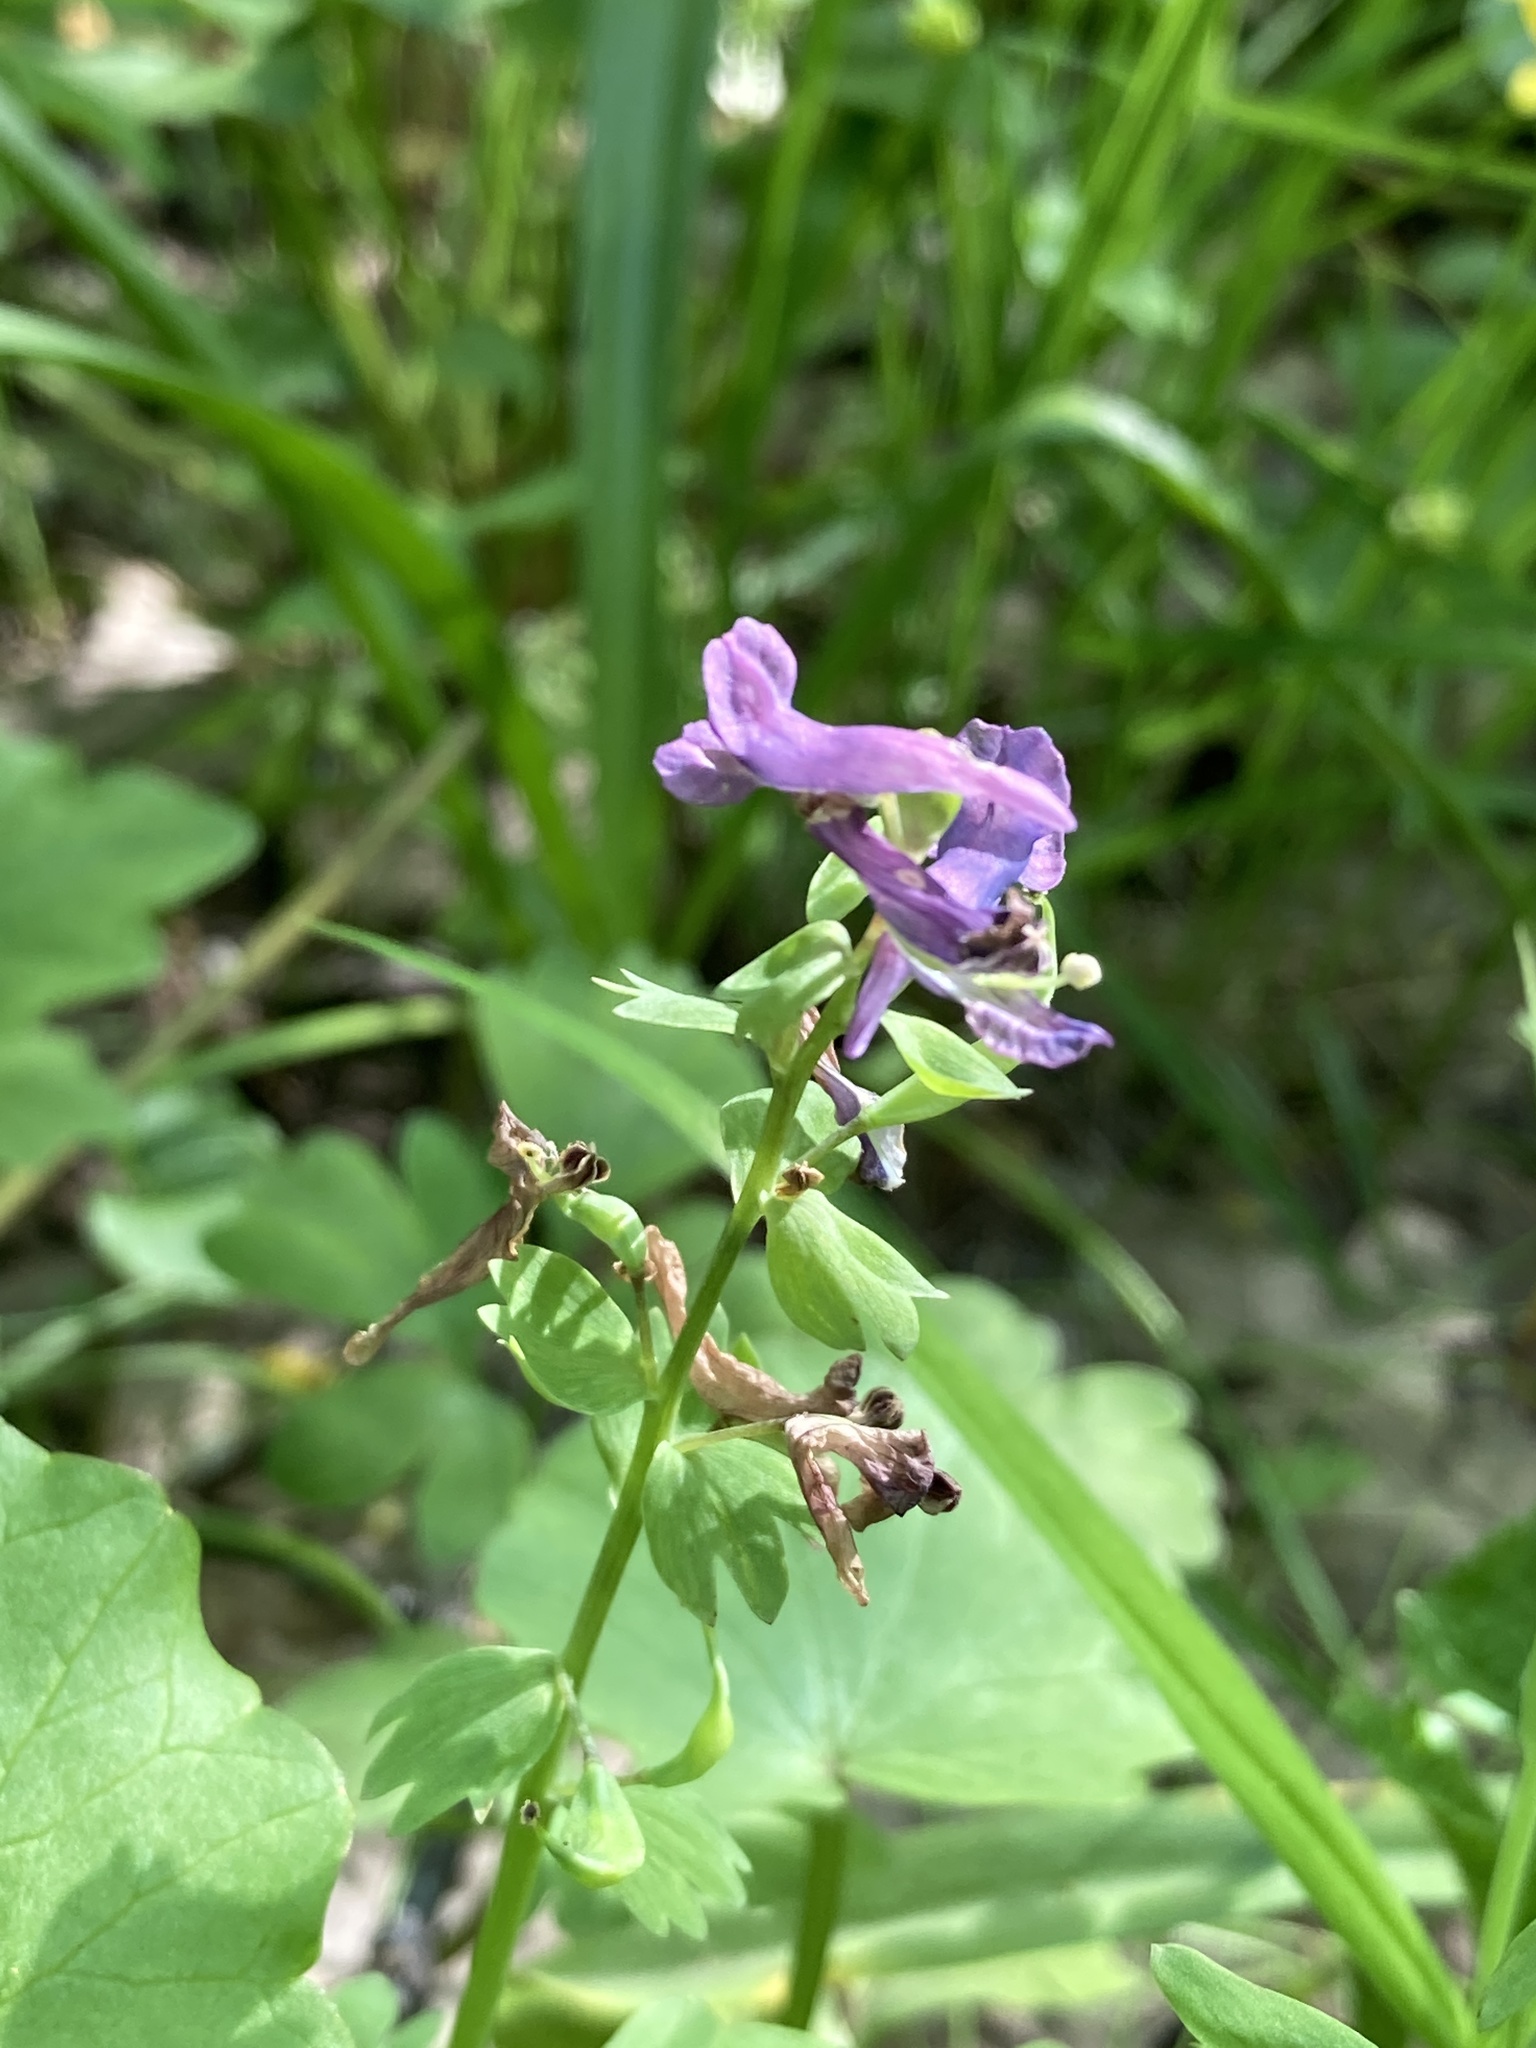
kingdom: Plantae
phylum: Tracheophyta
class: Magnoliopsida
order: Ranunculales
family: Papaveraceae
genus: Corydalis
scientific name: Corydalis solida
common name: Bird-in-a-bush
